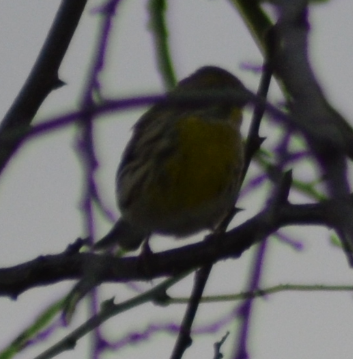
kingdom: Animalia
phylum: Chordata
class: Aves
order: Passeriformes
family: Fringillidae
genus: Serinus
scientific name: Serinus serinus
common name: European serin
